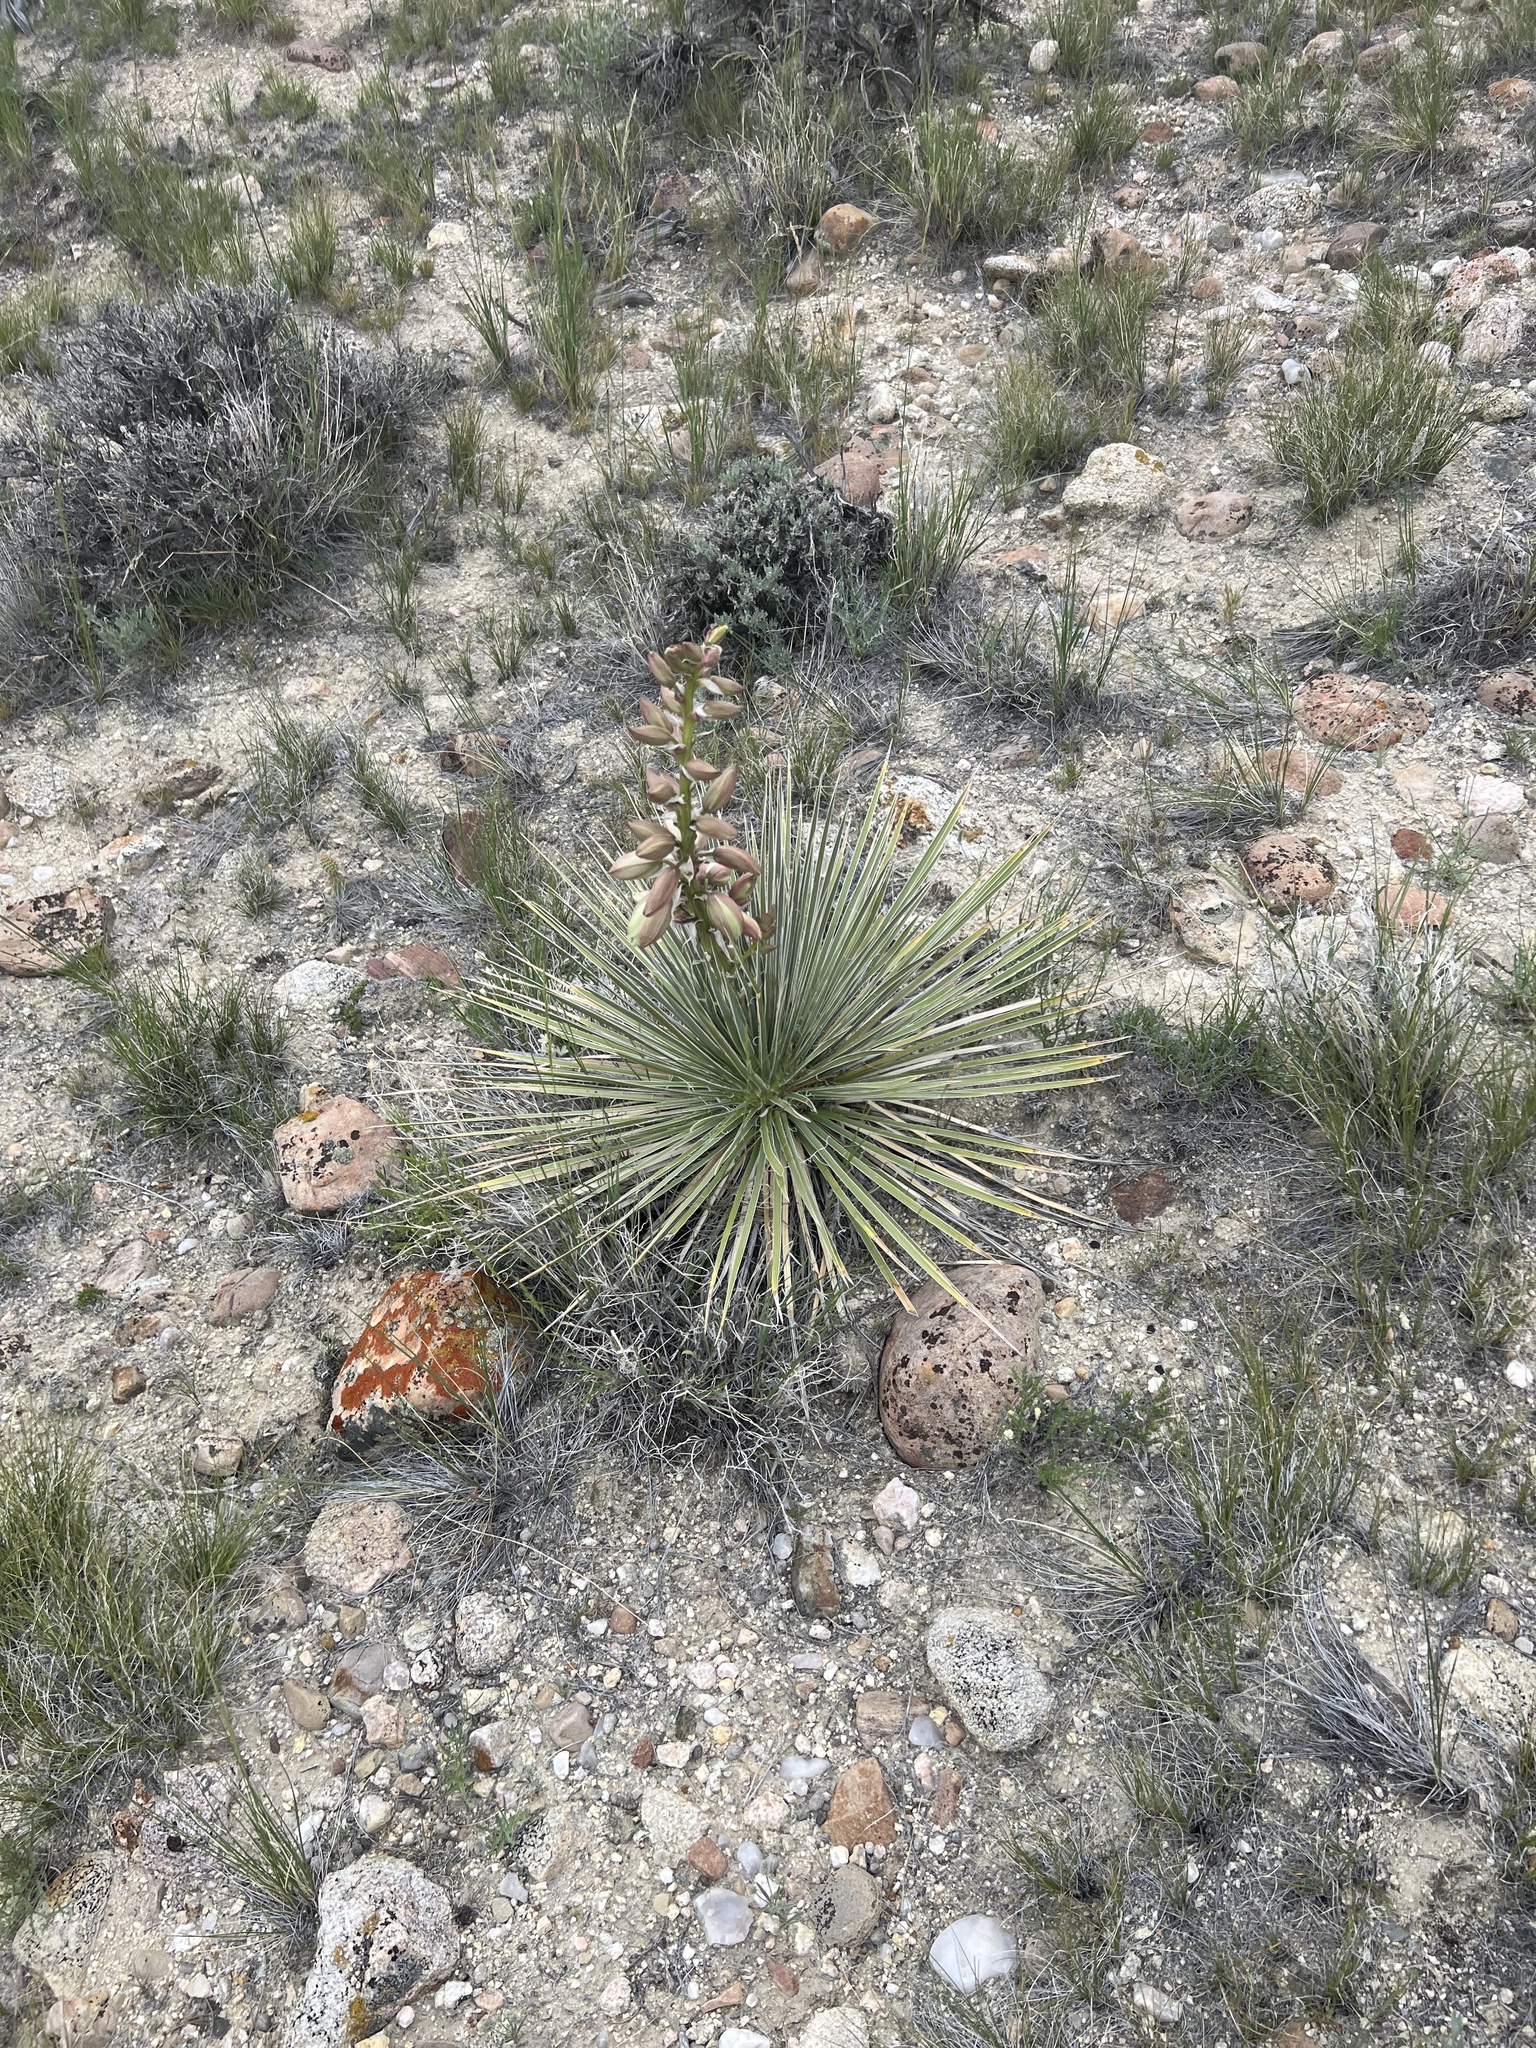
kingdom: Plantae
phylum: Tracheophyta
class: Liliopsida
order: Asparagales
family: Asparagaceae
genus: Yucca
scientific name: Yucca glauca
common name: Great plains yucca
